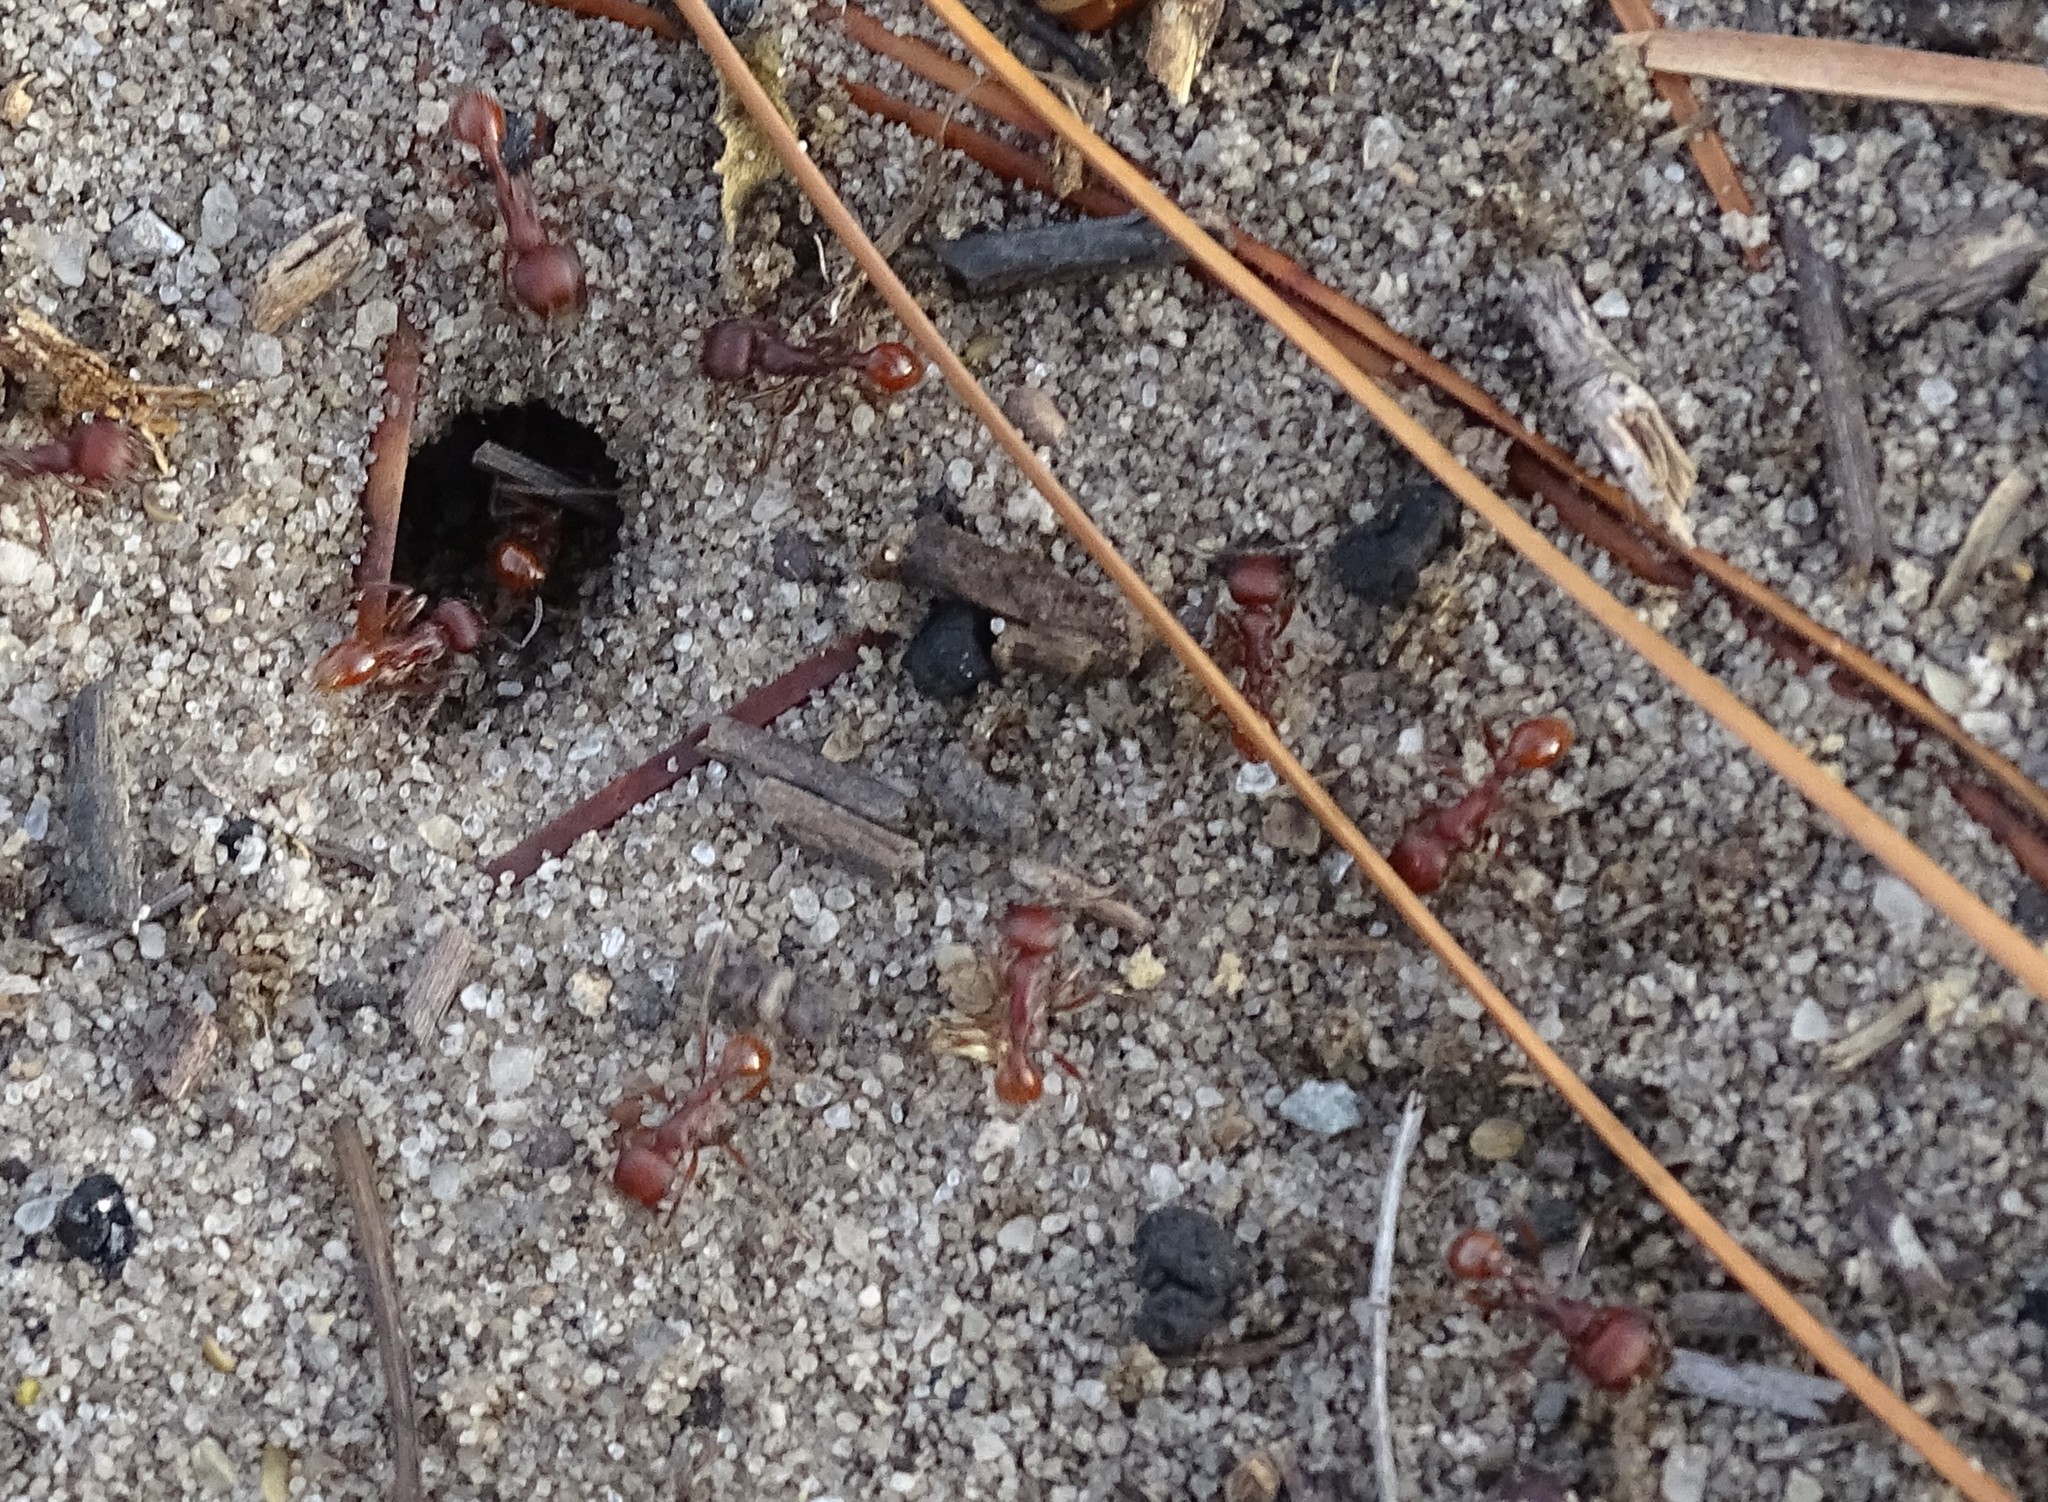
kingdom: Animalia
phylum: Arthropoda
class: Insecta
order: Hymenoptera
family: Formicidae
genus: Pogonomyrmex
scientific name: Pogonomyrmex badius
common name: Florida harvester ant
